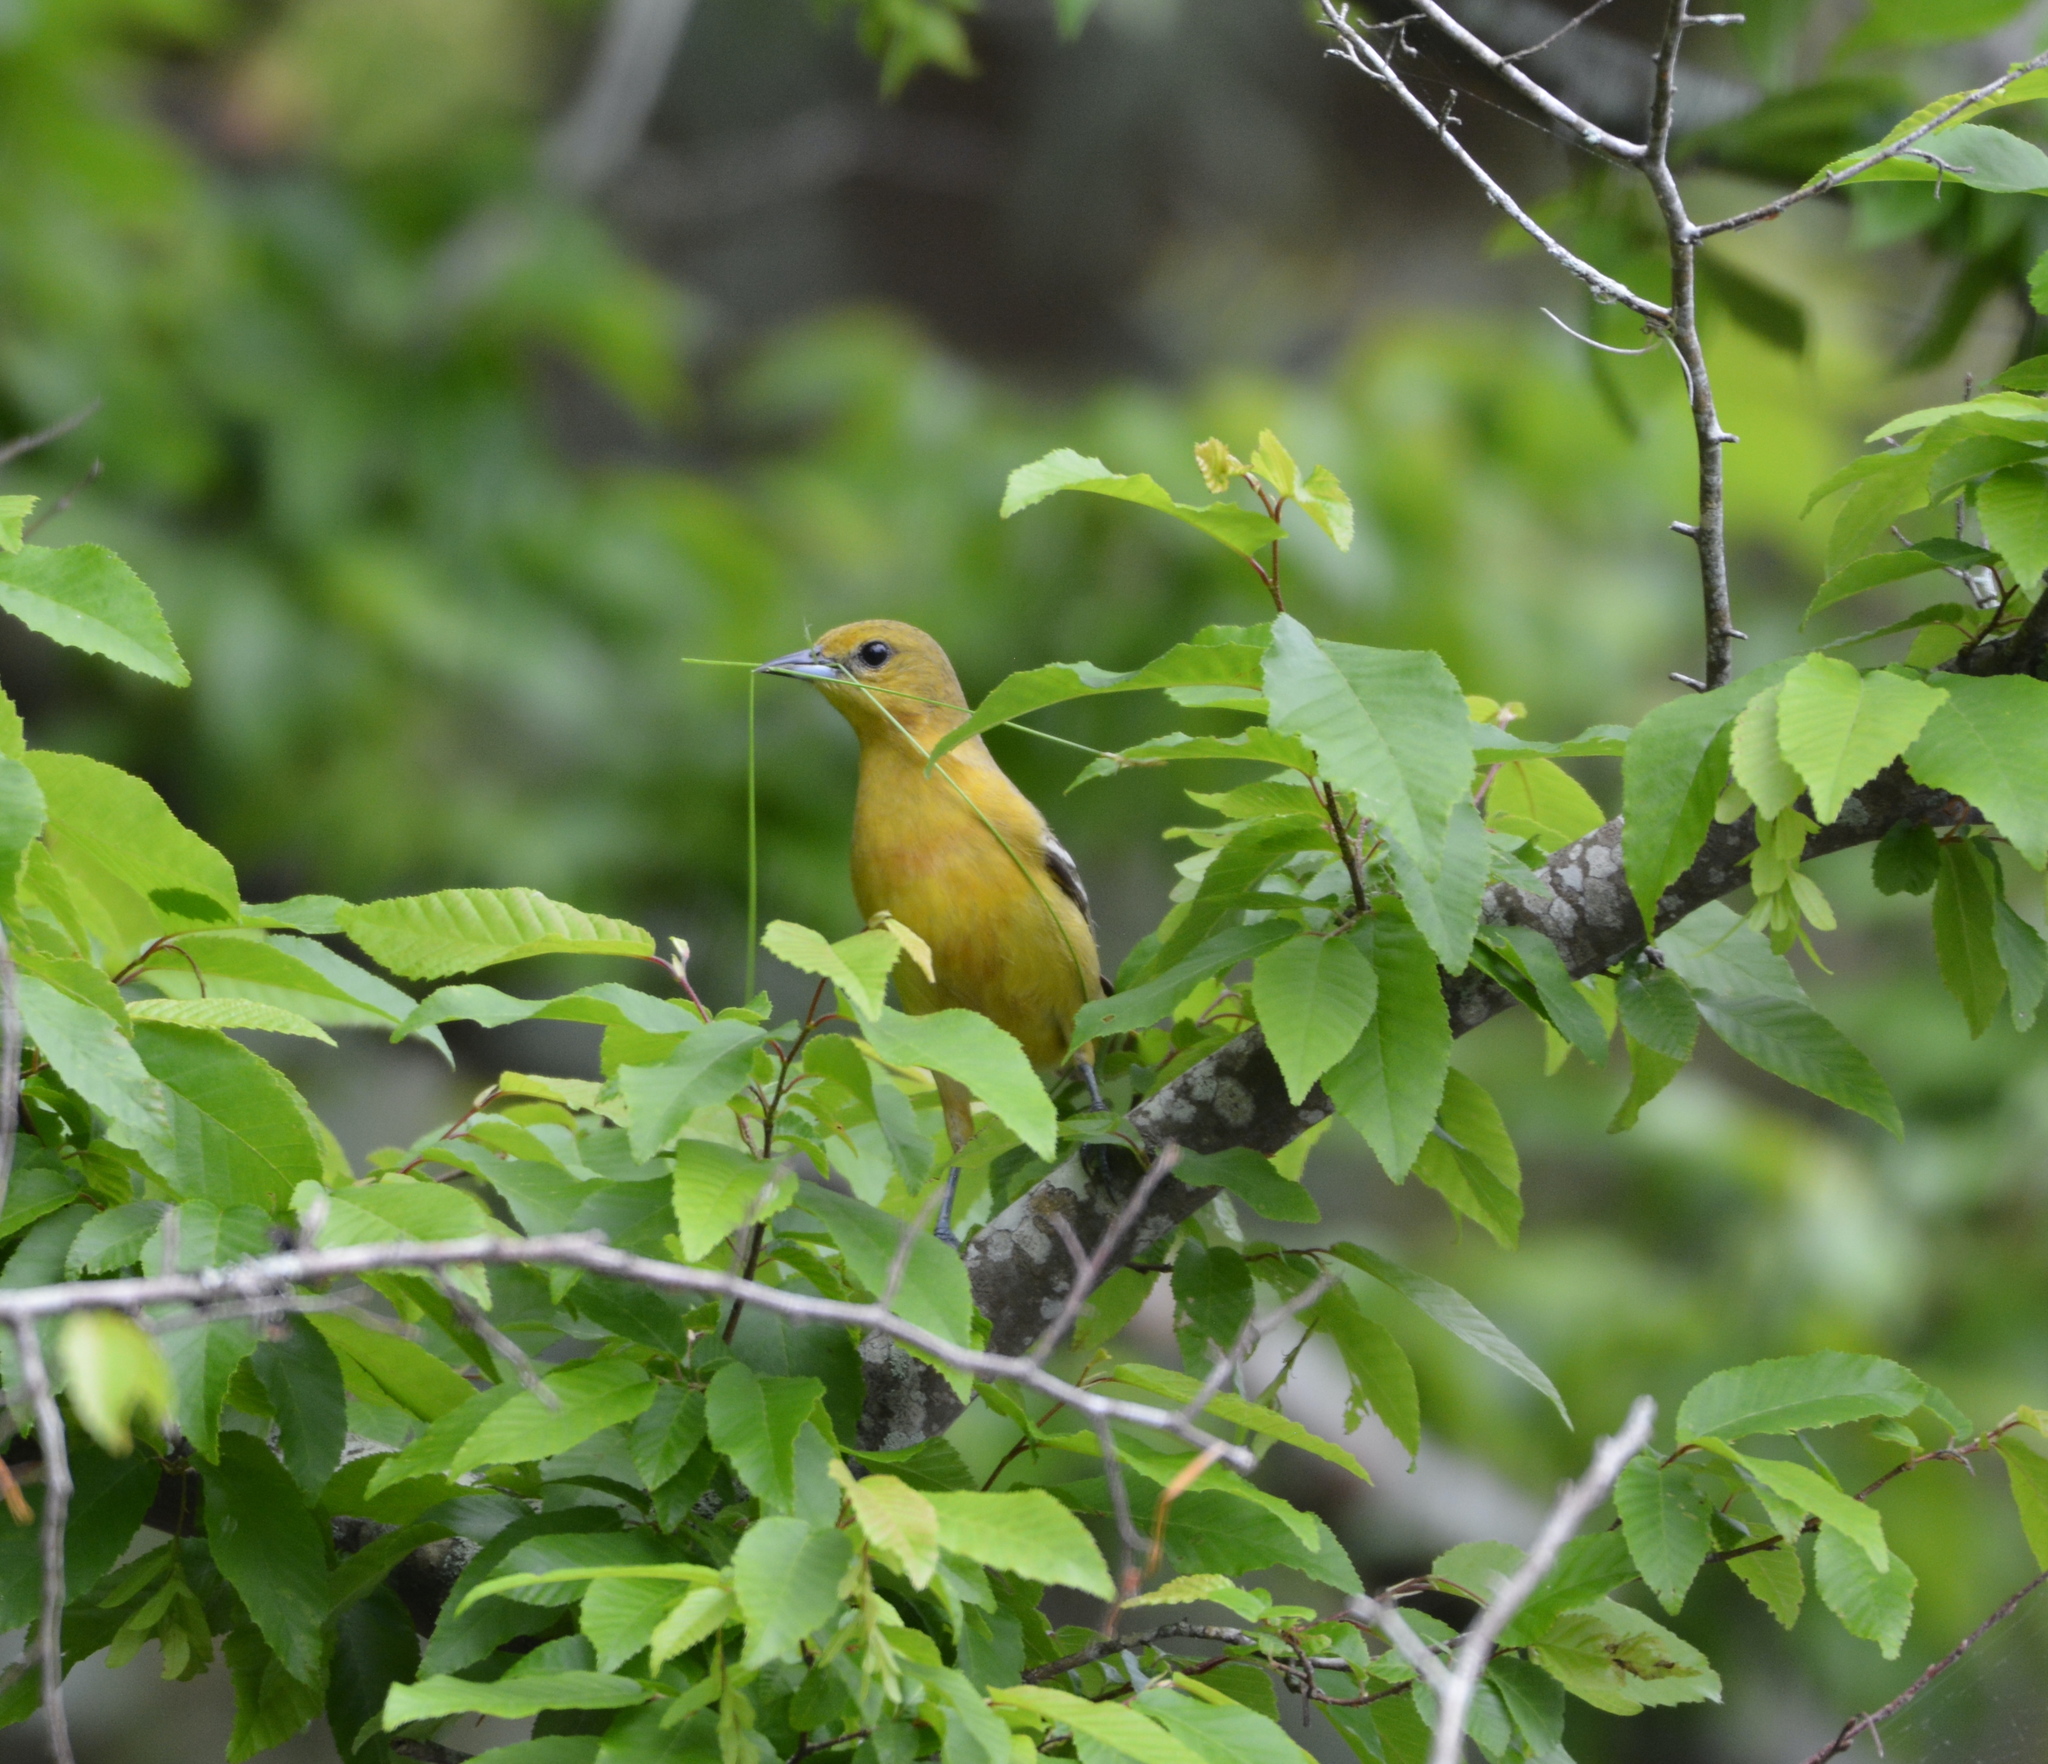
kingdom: Animalia
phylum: Chordata
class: Aves
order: Passeriformes
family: Icteridae
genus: Icterus
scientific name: Icterus spurius
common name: Orchard oriole
